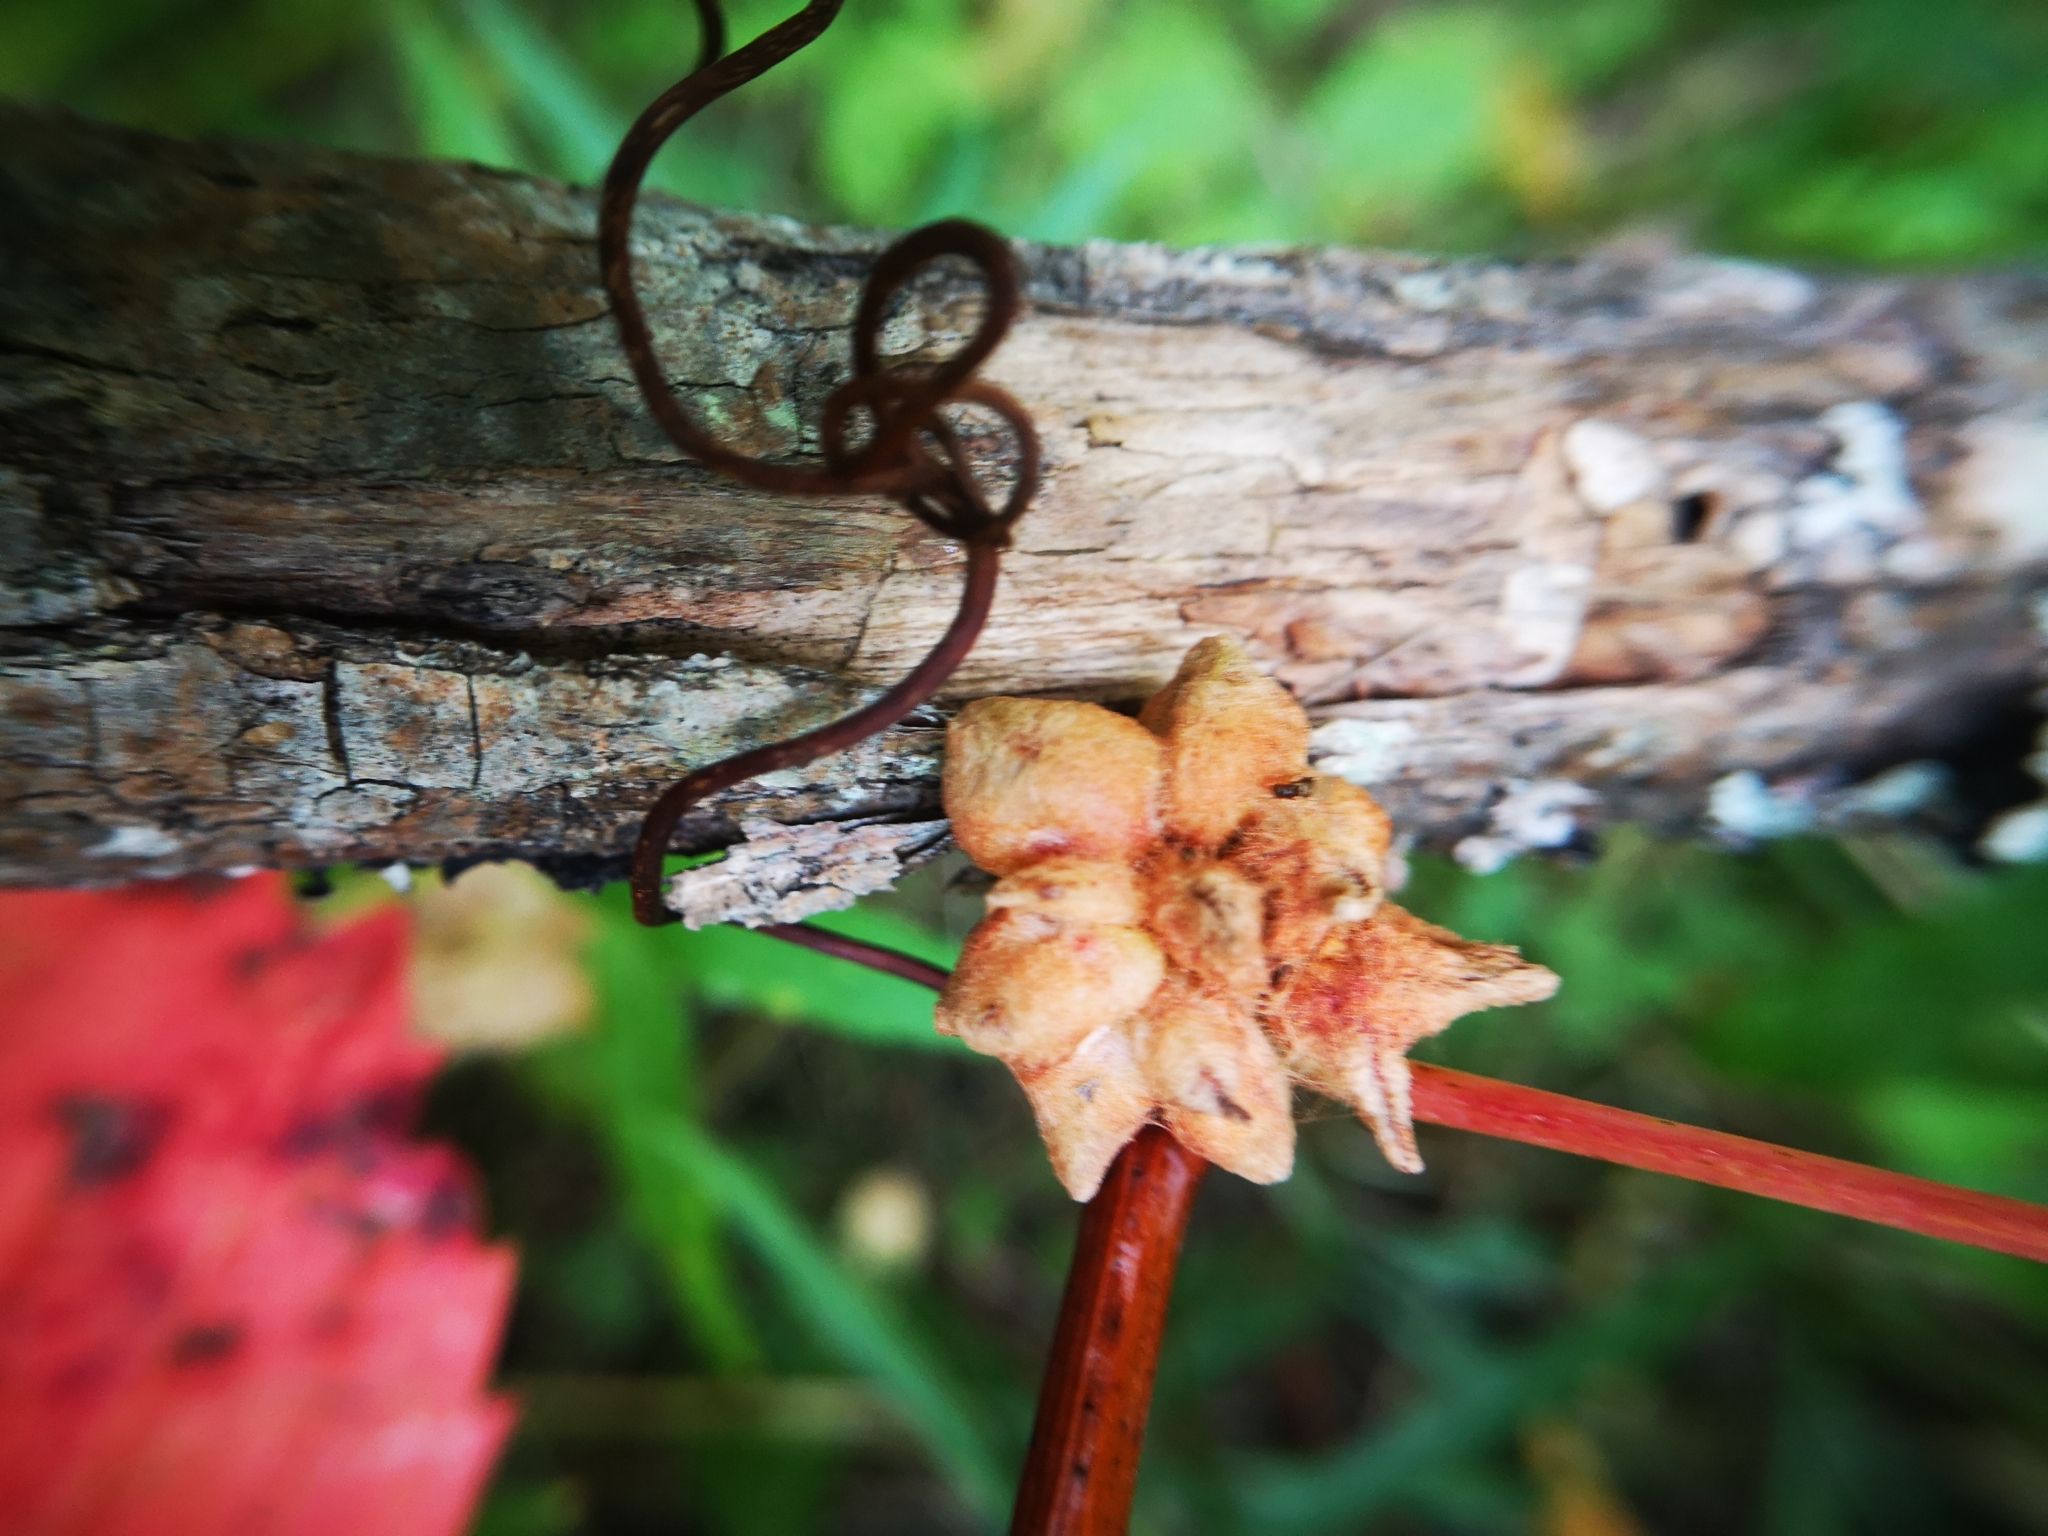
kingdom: Animalia
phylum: Arthropoda
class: Insecta
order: Diptera
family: Cecidomyiidae
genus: Ampelomyia
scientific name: Ampelomyia vitiscoryloides
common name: Grape filbert gall
